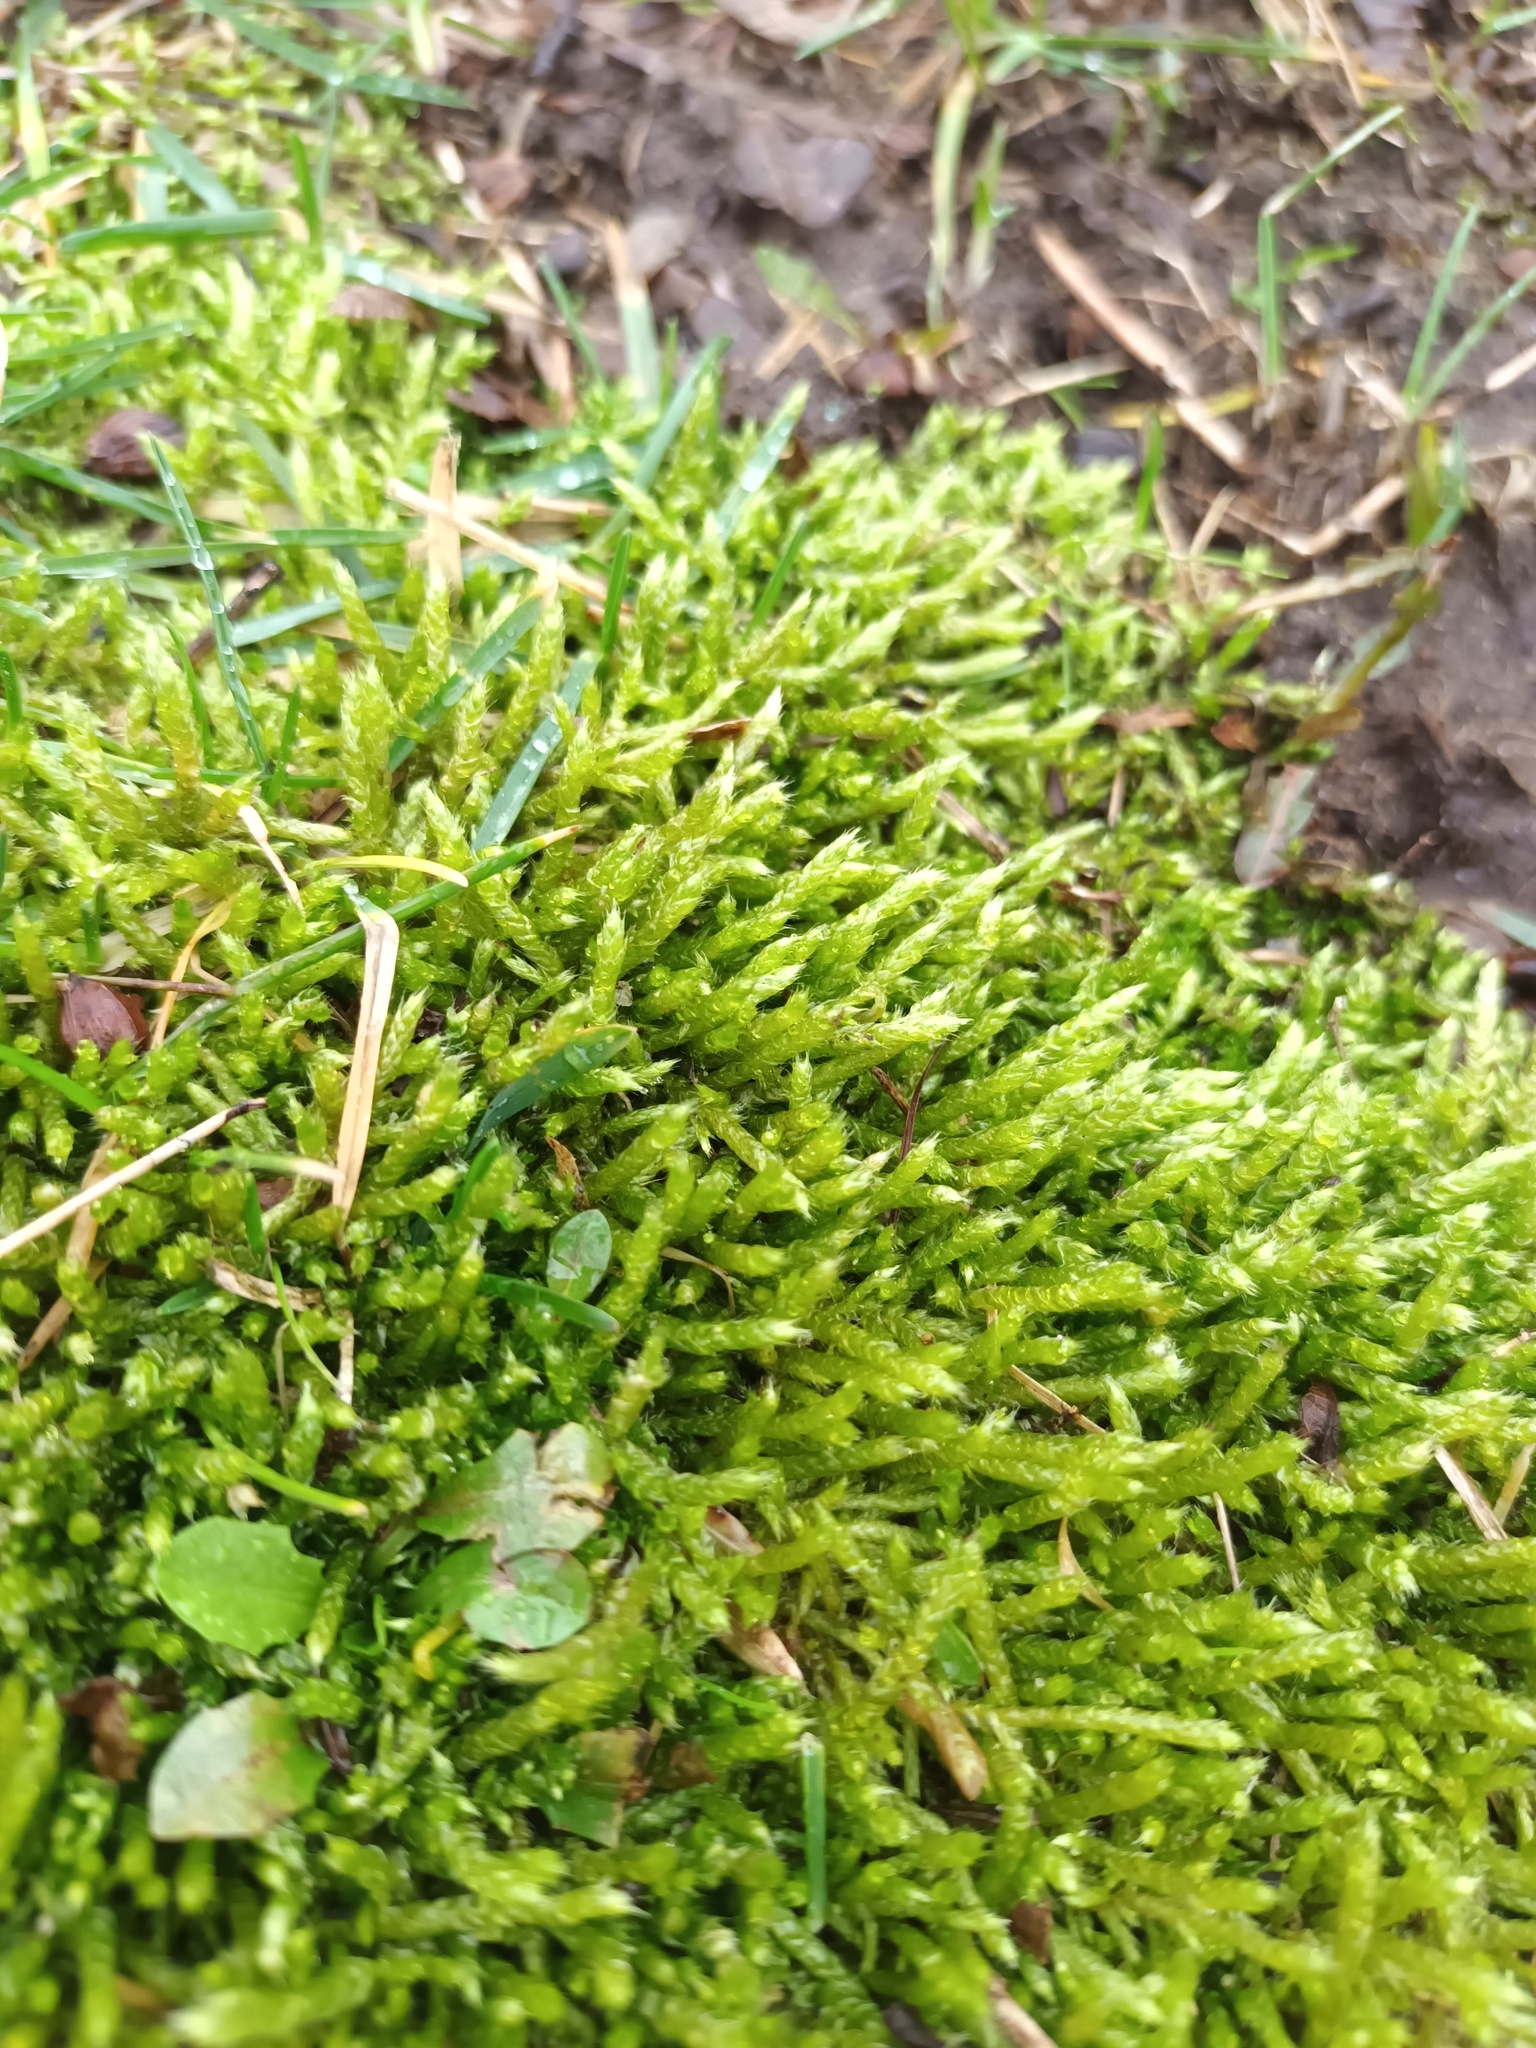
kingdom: Plantae
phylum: Bryophyta
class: Bryopsida
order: Hypnales
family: Brachytheciaceae
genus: Brachythecium
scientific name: Brachythecium albicans
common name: Whitish ragged moss
